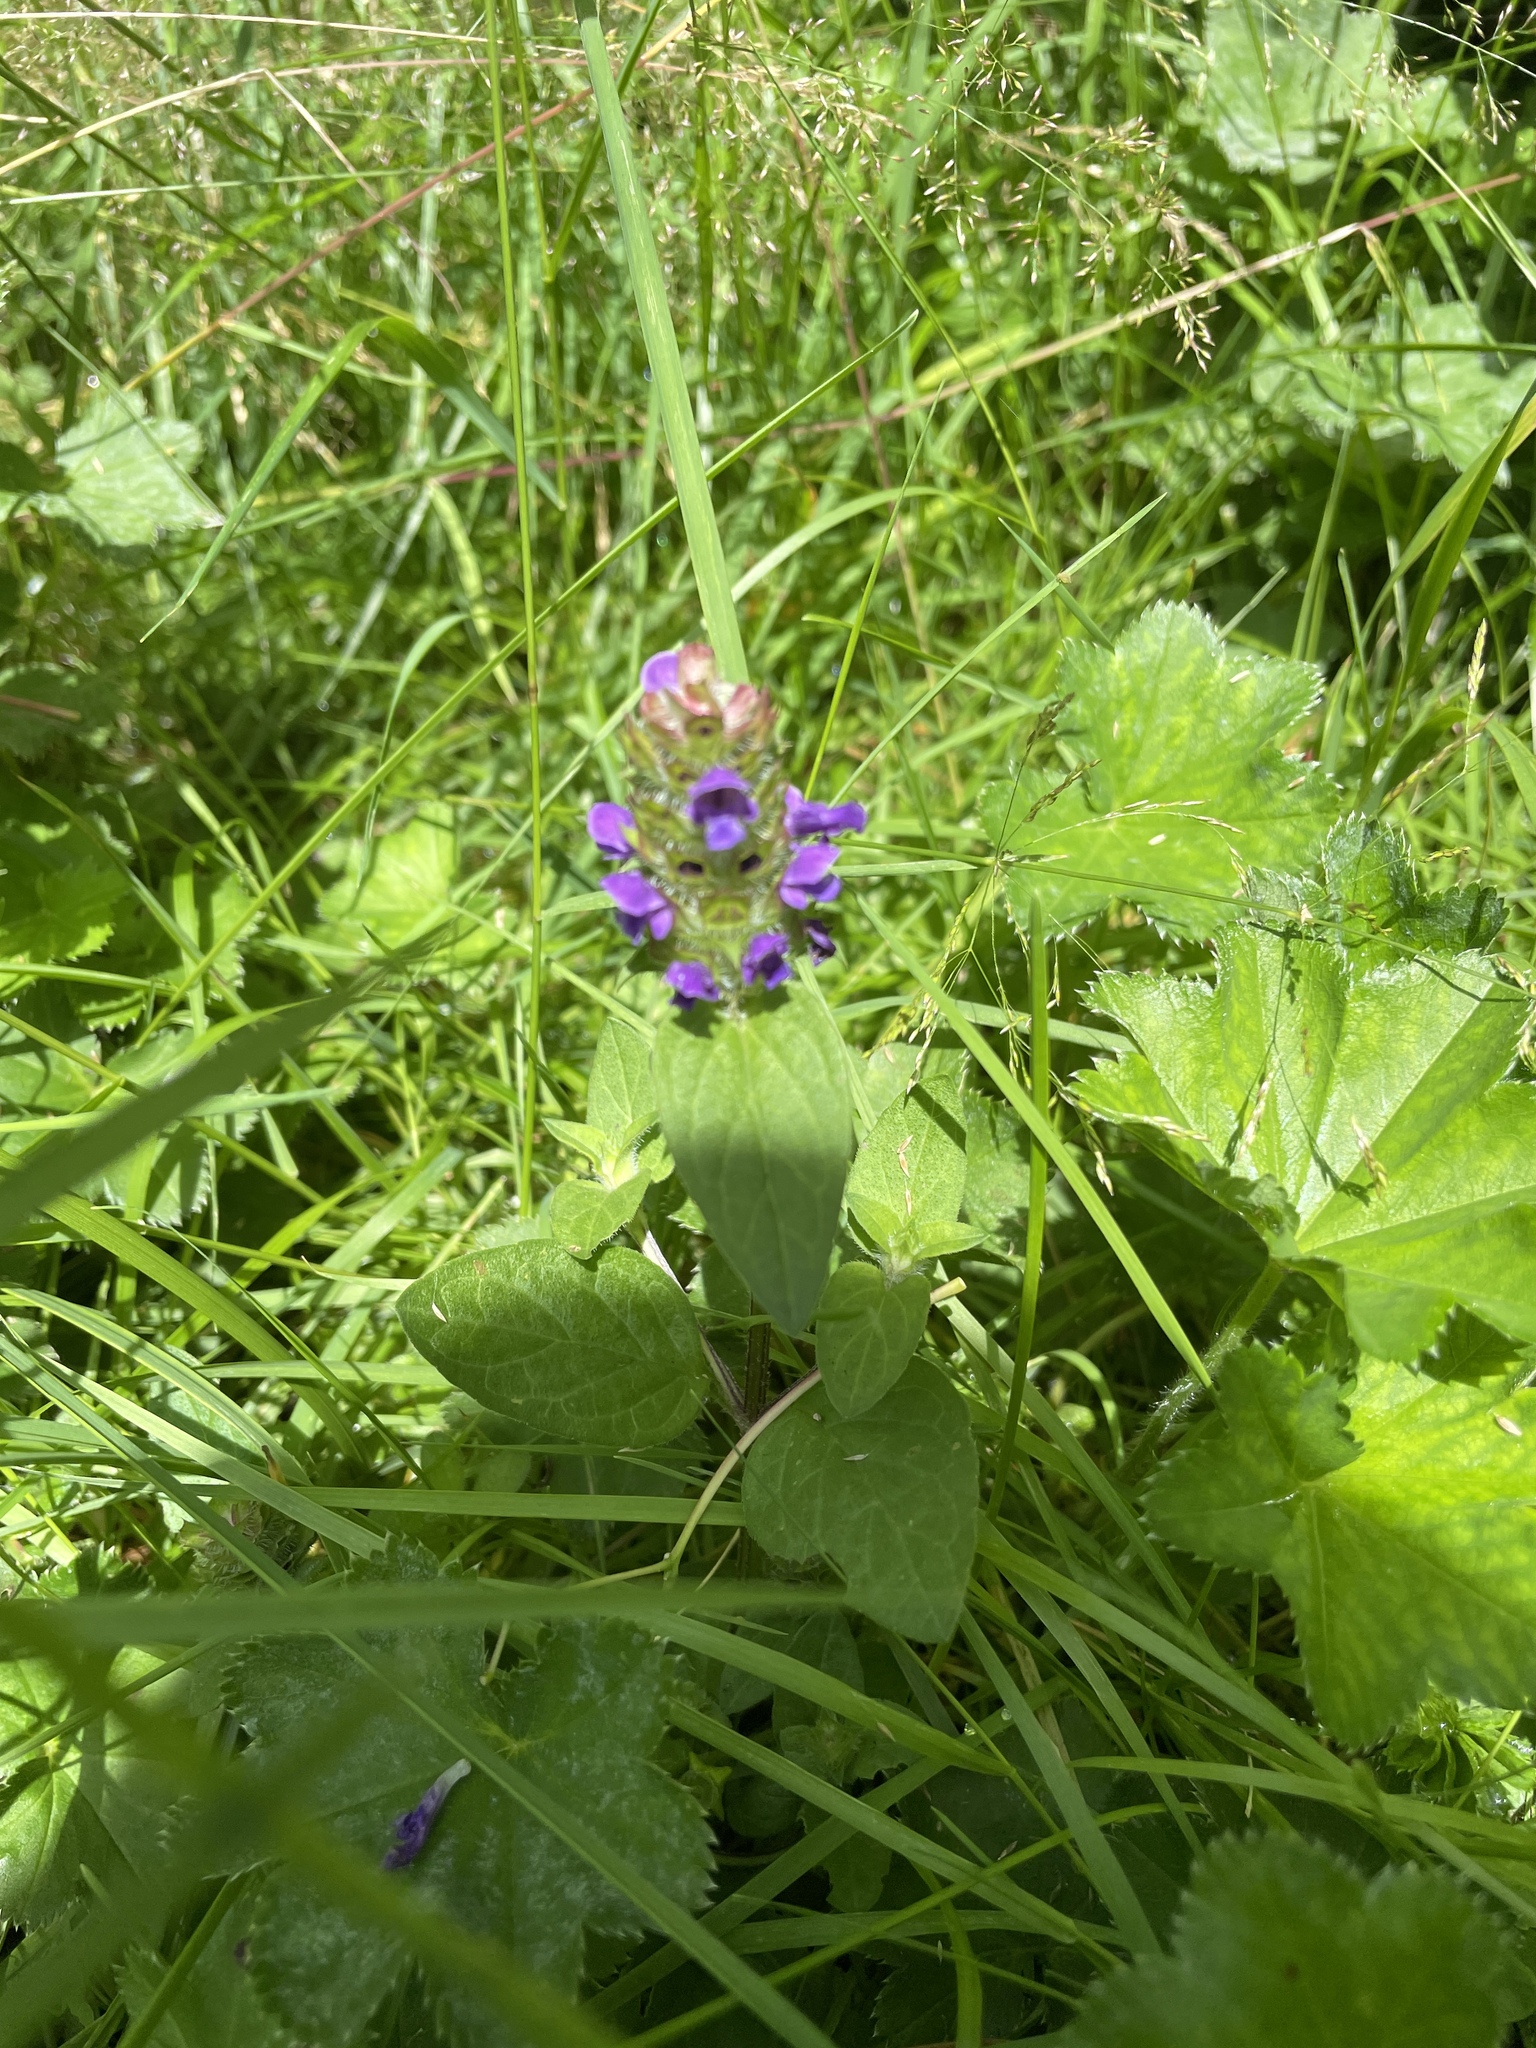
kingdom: Plantae
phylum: Tracheophyta
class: Magnoliopsida
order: Lamiales
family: Lamiaceae
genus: Prunella
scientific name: Prunella vulgaris
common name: Heal-all
